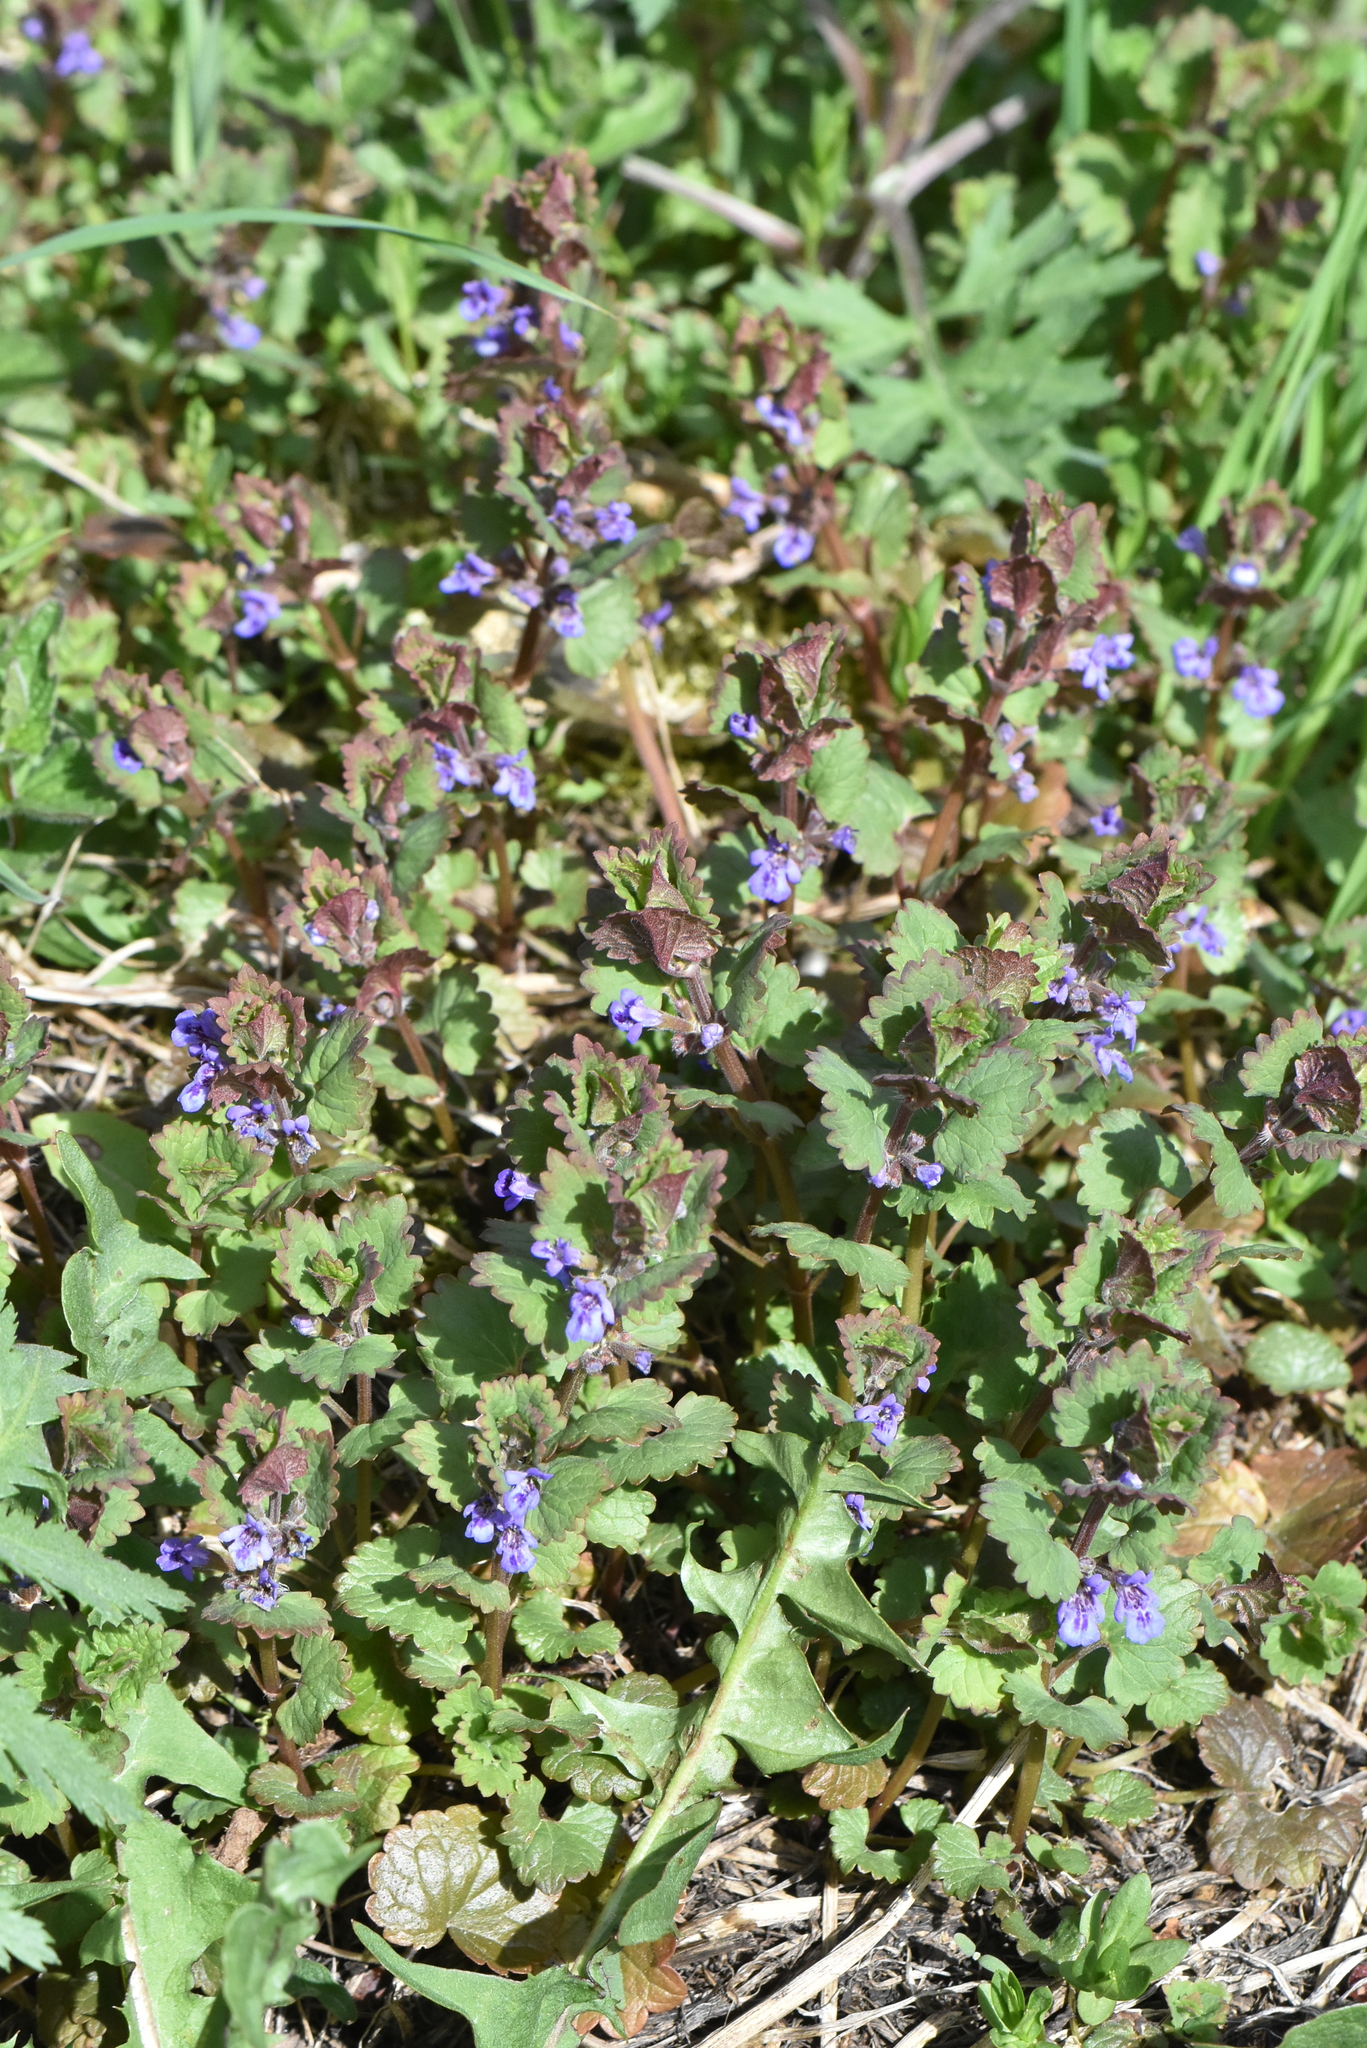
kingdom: Plantae
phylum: Tracheophyta
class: Magnoliopsida
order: Lamiales
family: Lamiaceae
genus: Glechoma
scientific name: Glechoma hederacea
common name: Ground ivy
